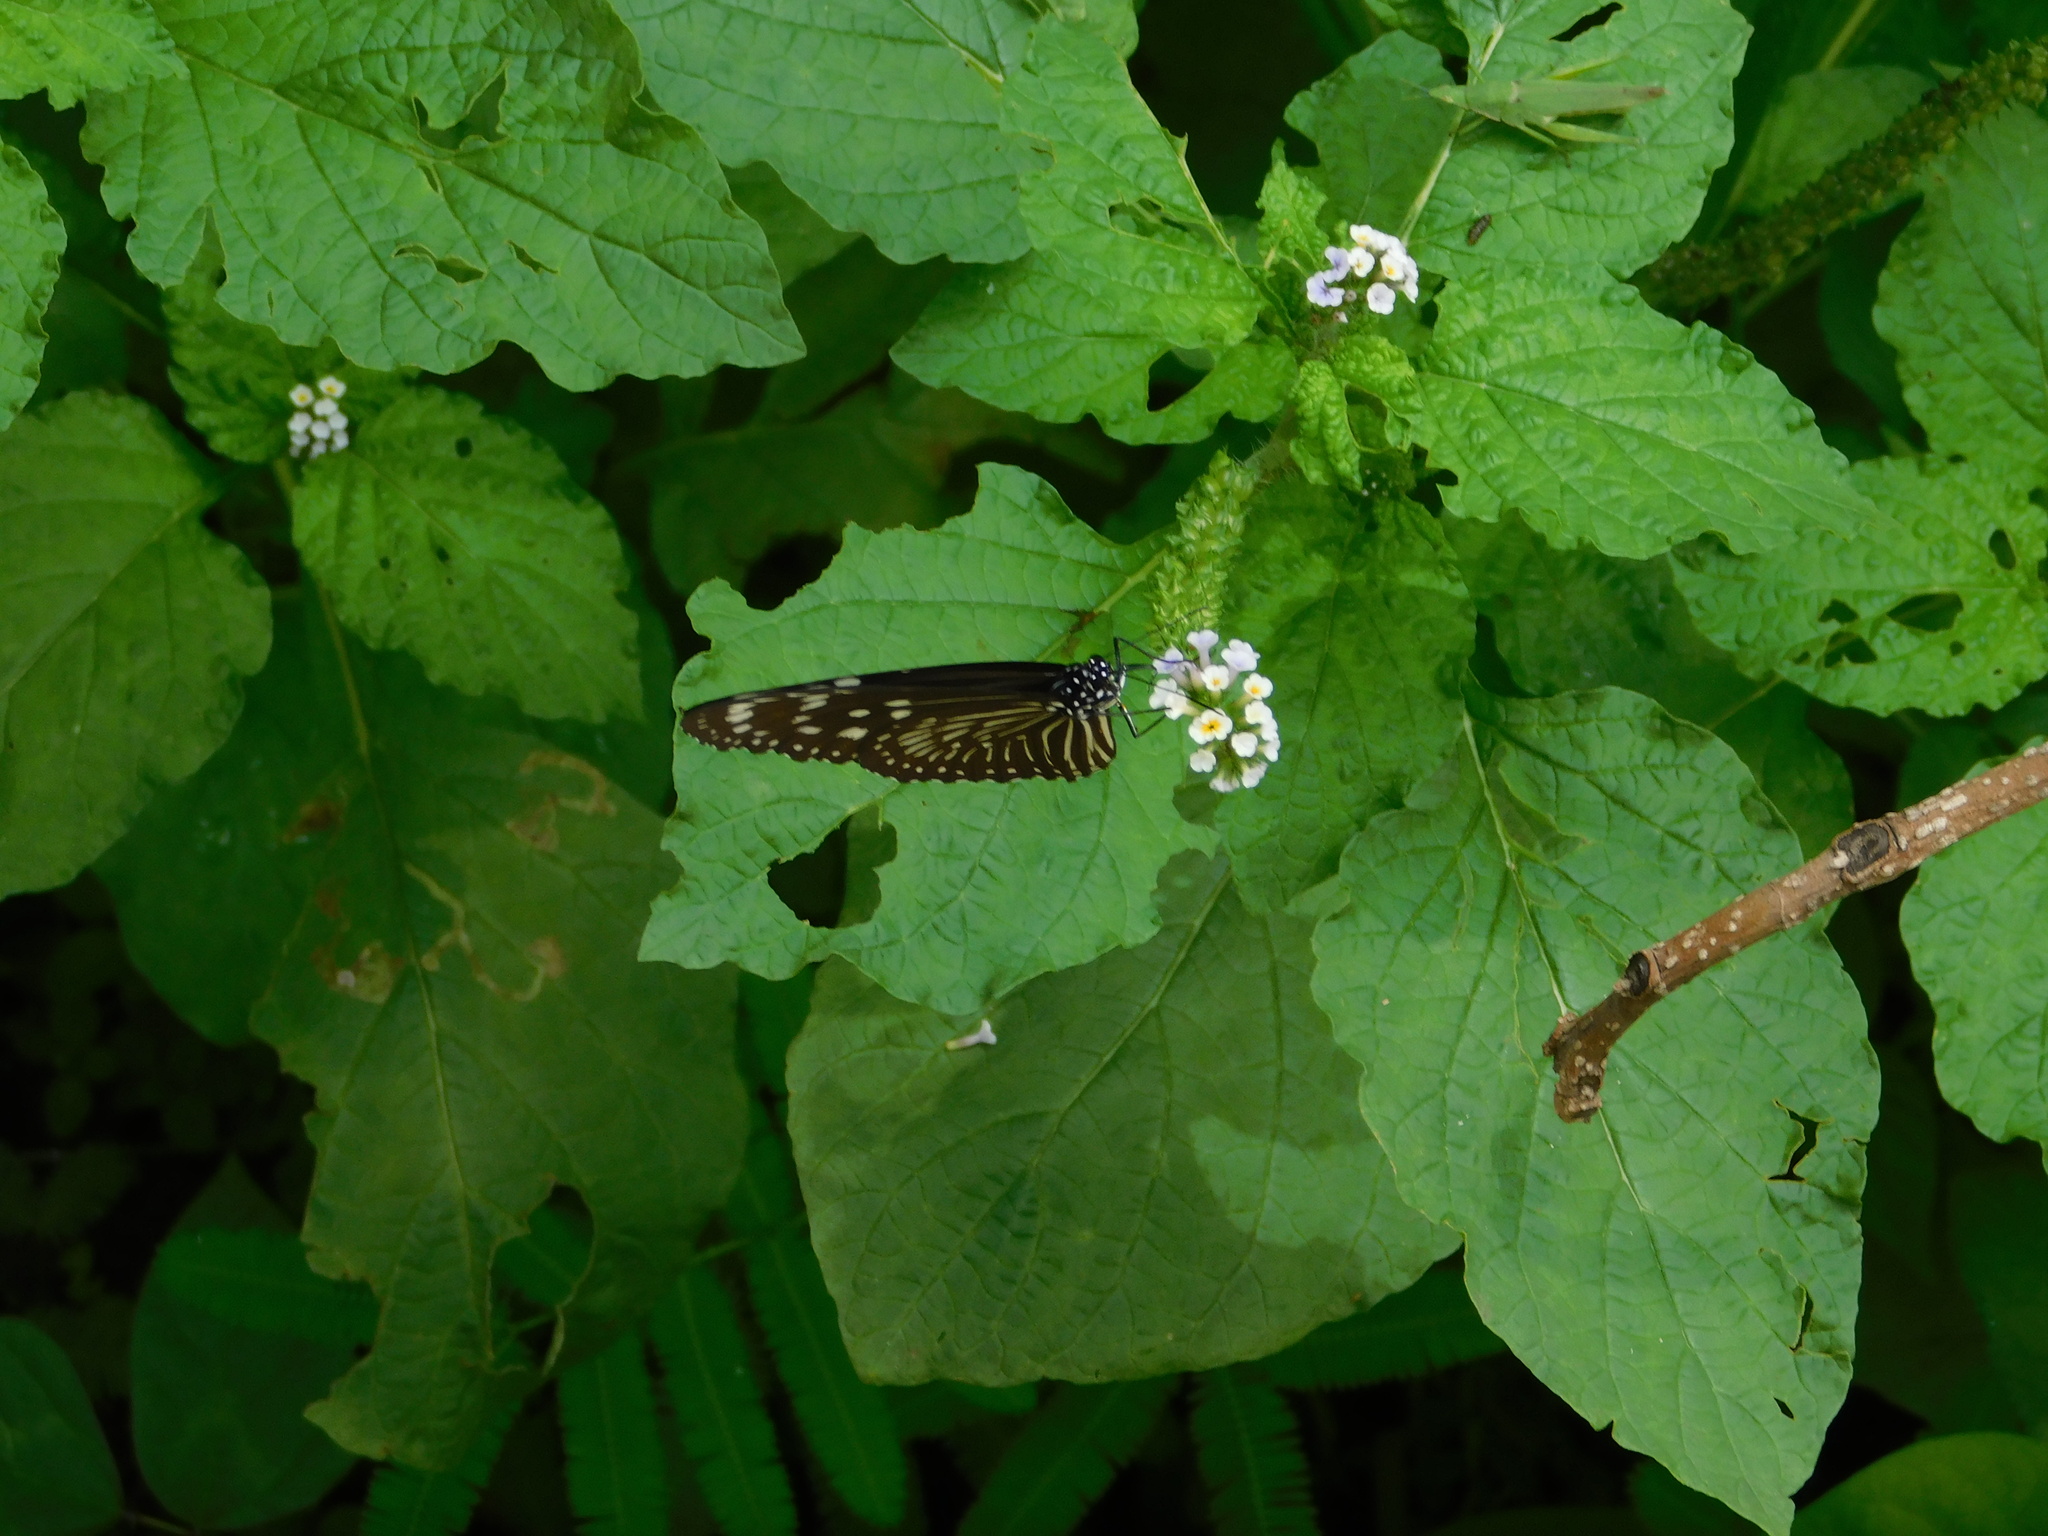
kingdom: Animalia
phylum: Arthropoda
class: Insecta
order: Lepidoptera
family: Nymphalidae
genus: Euploea
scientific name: Euploea mulciber
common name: Striped blue crow butterfly
